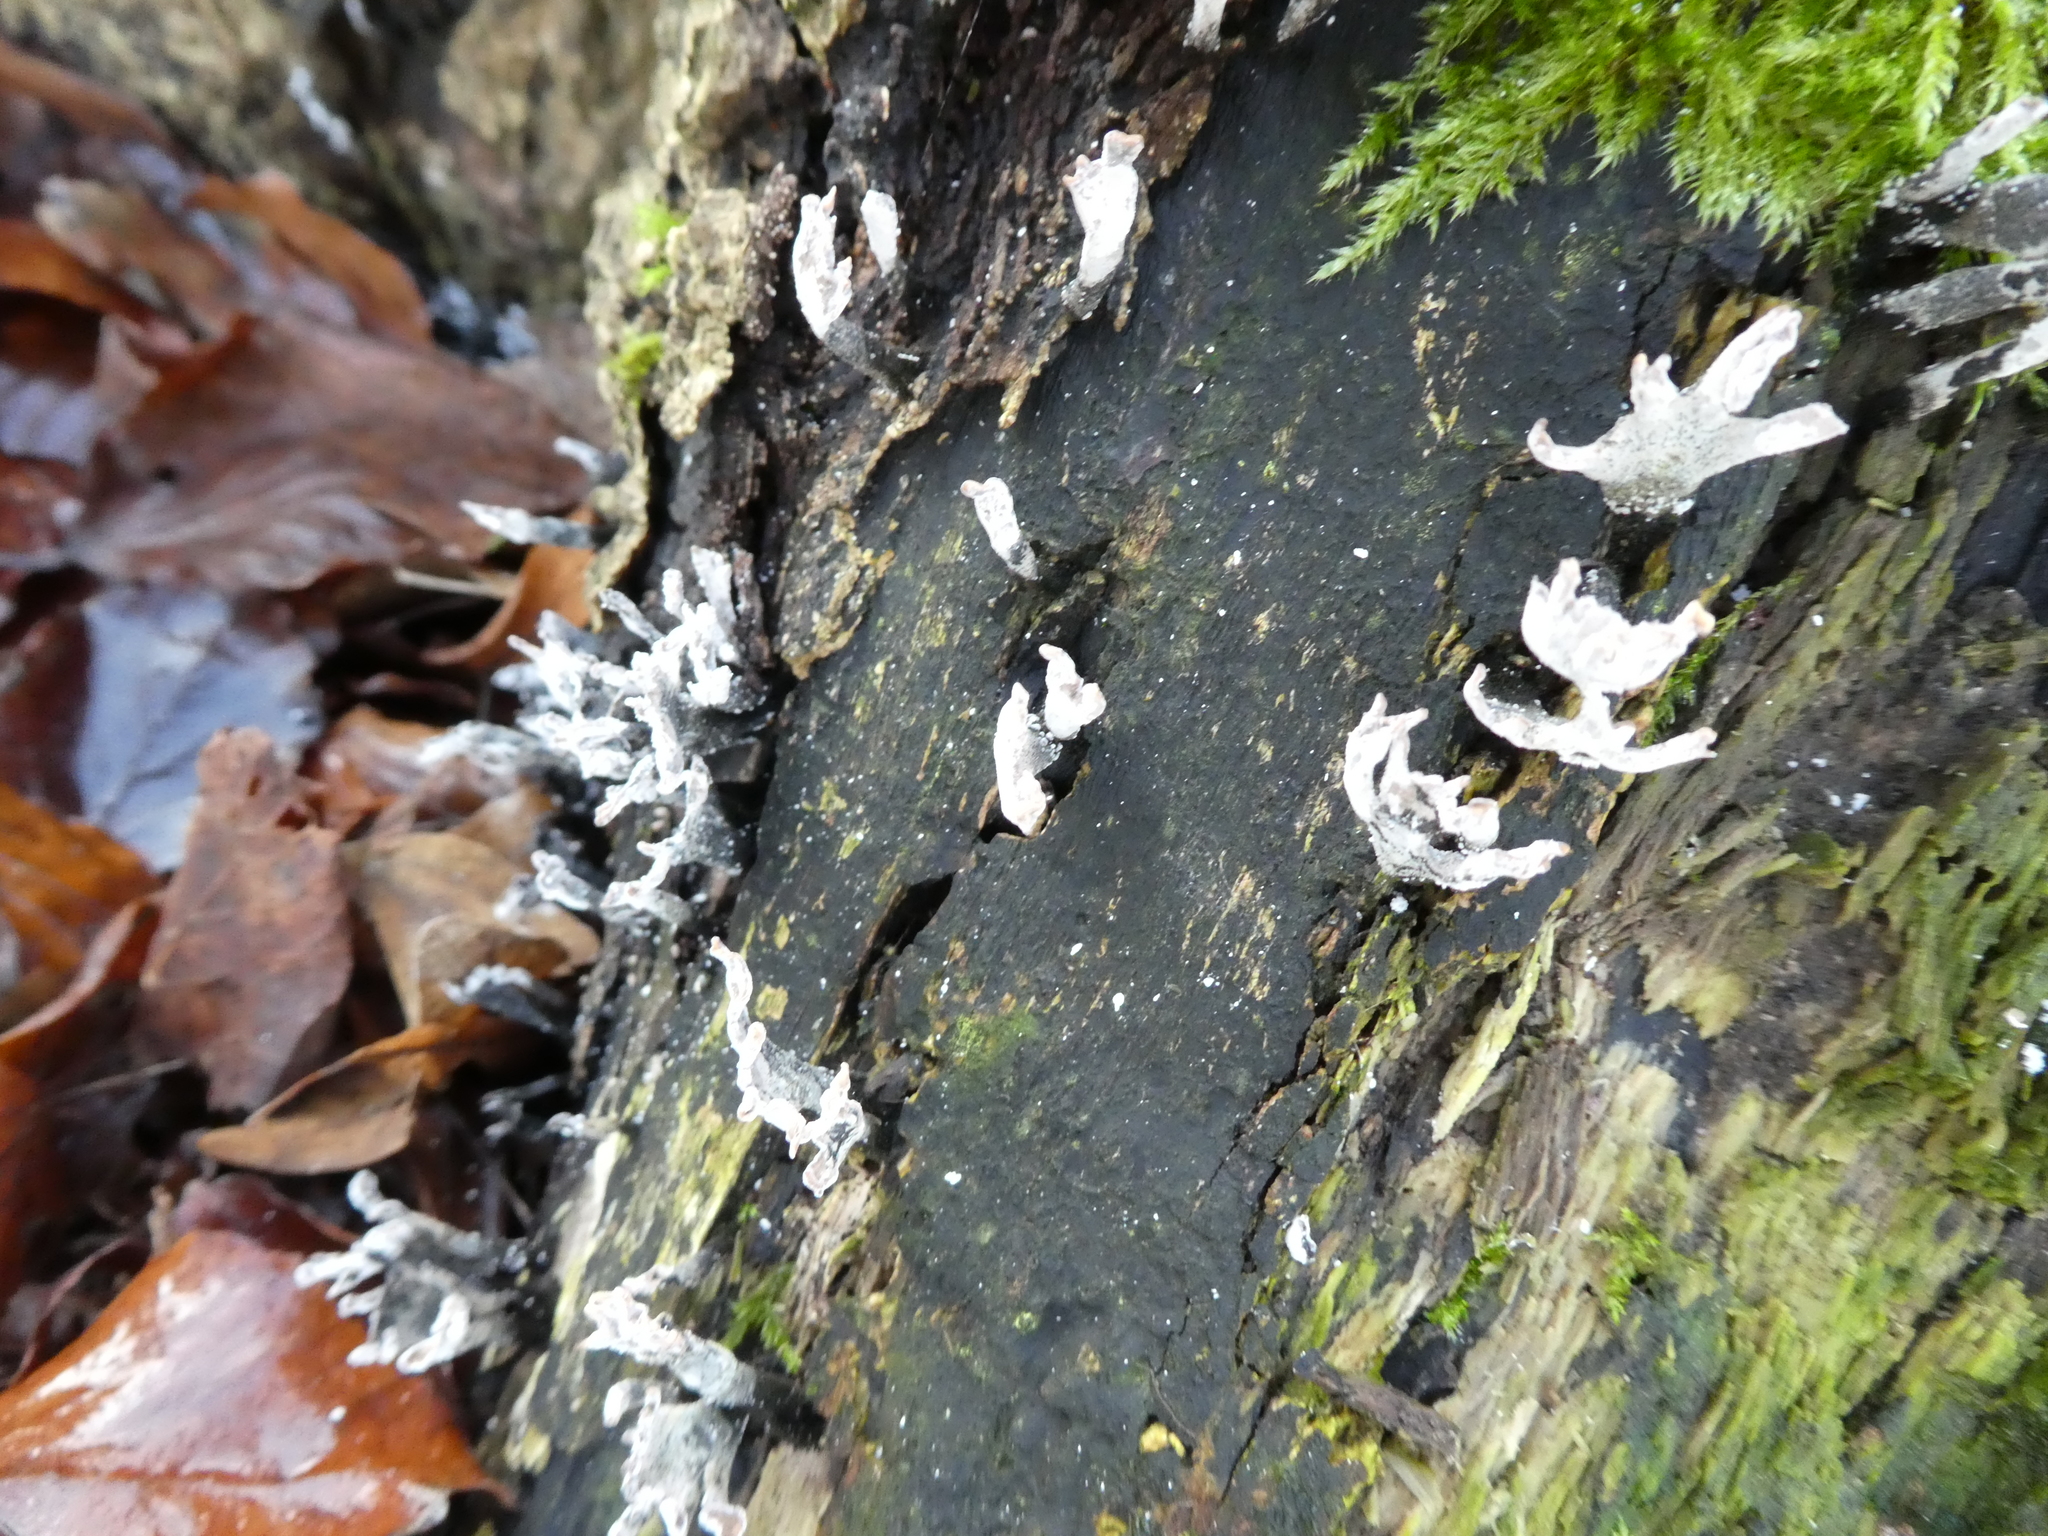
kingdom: Fungi
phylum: Ascomycota
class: Sordariomycetes
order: Xylariales
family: Xylariaceae
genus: Xylaria
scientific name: Xylaria hypoxylon
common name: Candle-snuff fungus
